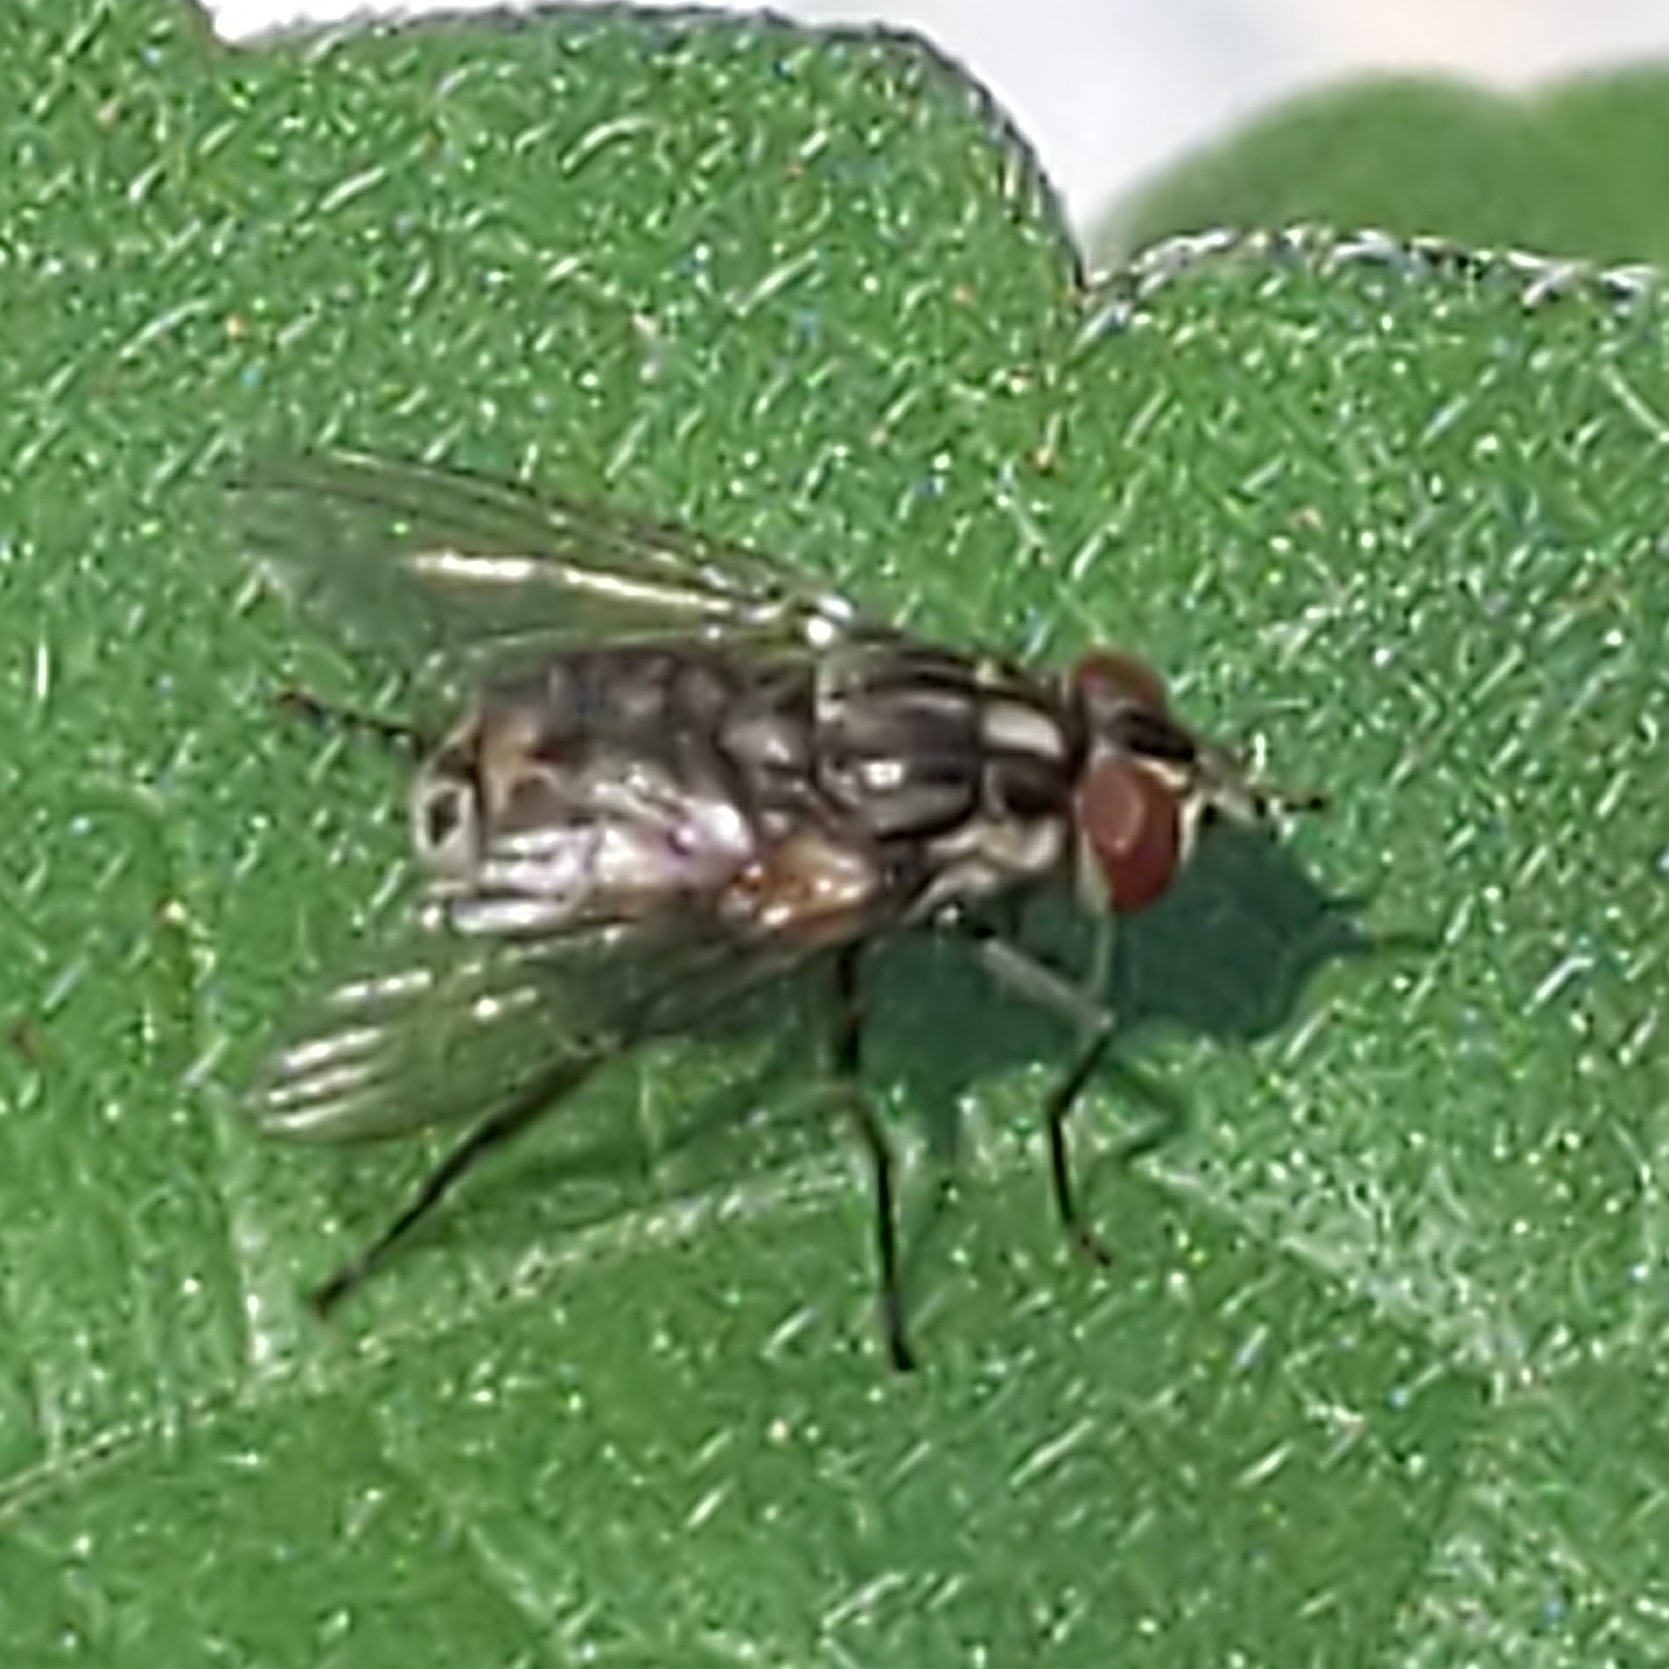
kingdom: Animalia
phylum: Arthropoda
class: Insecta
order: Diptera
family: Muscidae
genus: Stomoxys
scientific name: Stomoxys calcitrans
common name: Stable fly
